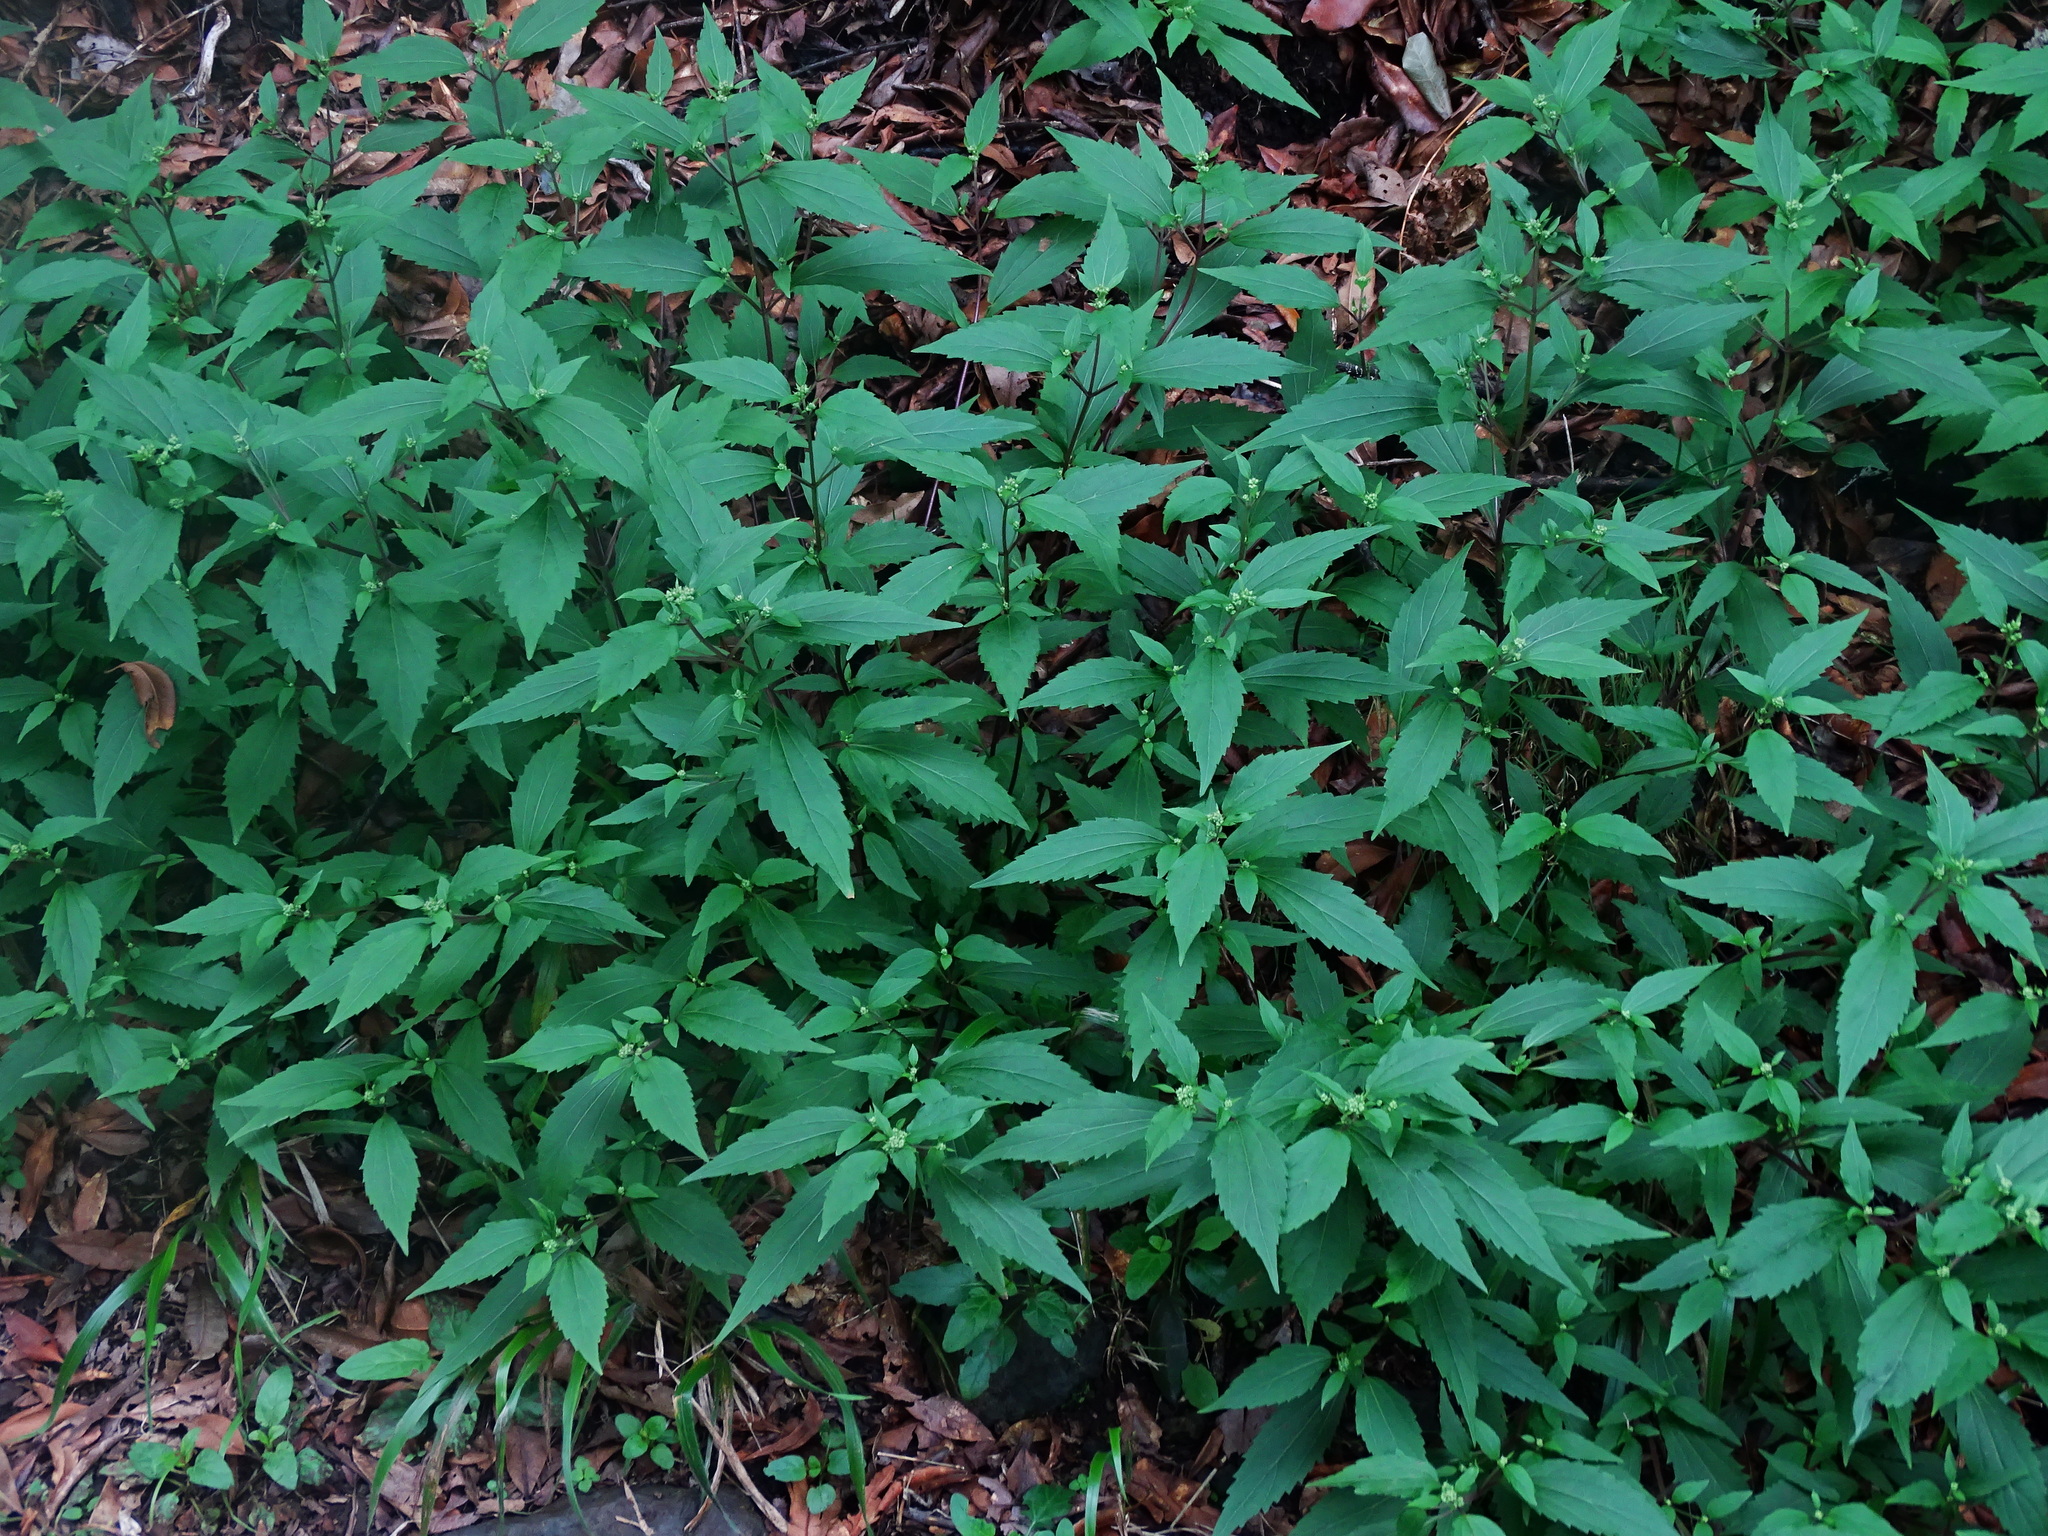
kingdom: Plantae
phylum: Tracheophyta
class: Magnoliopsida
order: Asterales
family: Asteraceae
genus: Ageratina
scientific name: Ageratina riparia
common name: Creeping croftonweed
